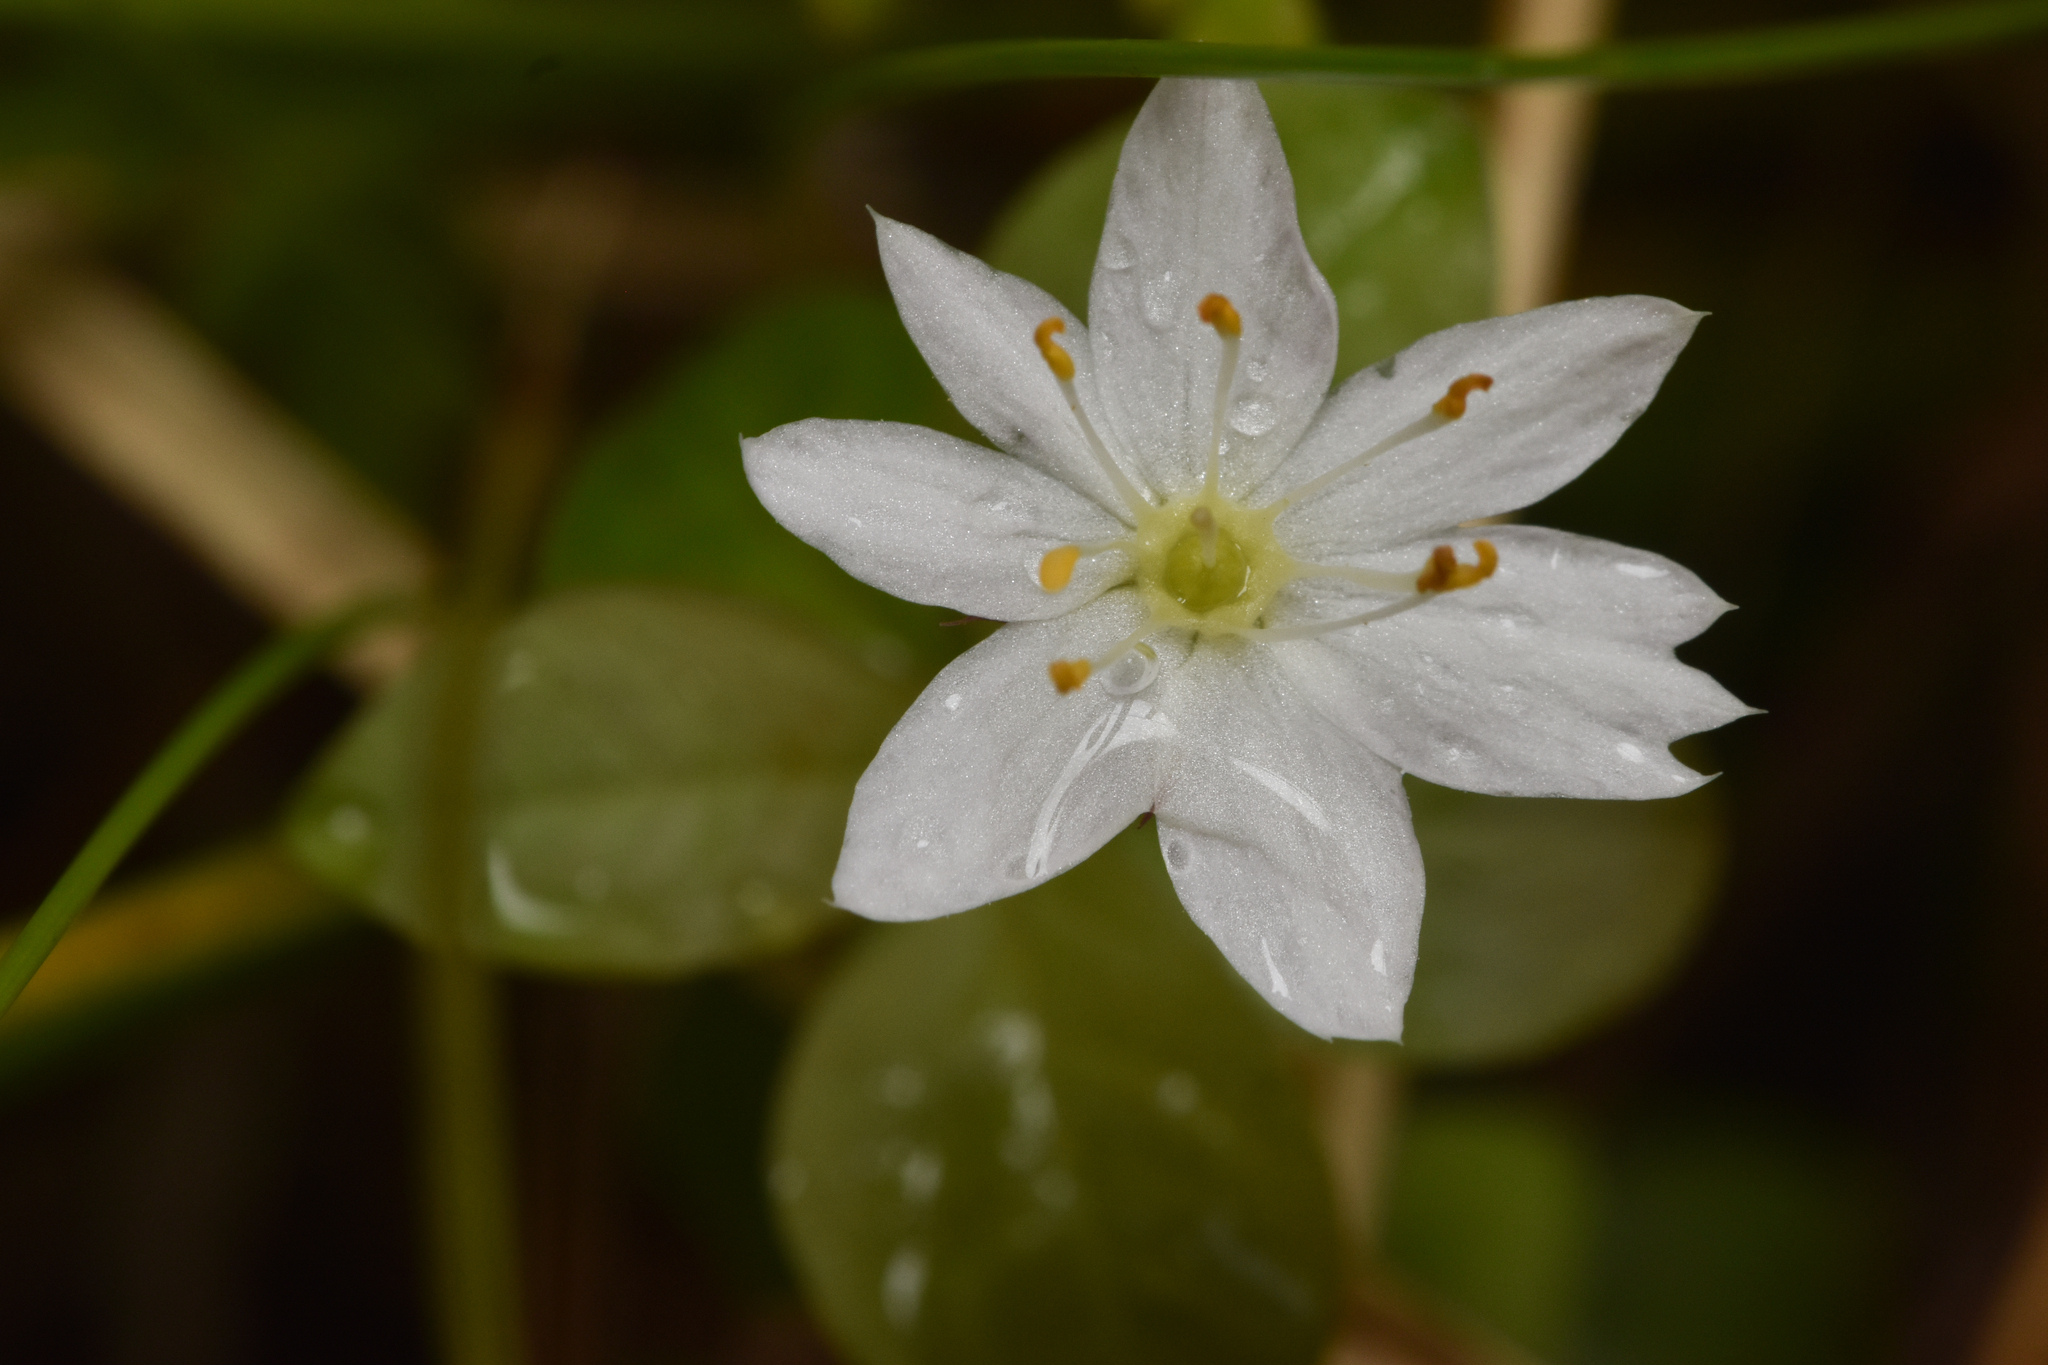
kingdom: Plantae
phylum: Tracheophyta
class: Magnoliopsida
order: Ericales
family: Primulaceae
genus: Lysimachia
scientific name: Lysimachia europaea
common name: Arctic starflower
